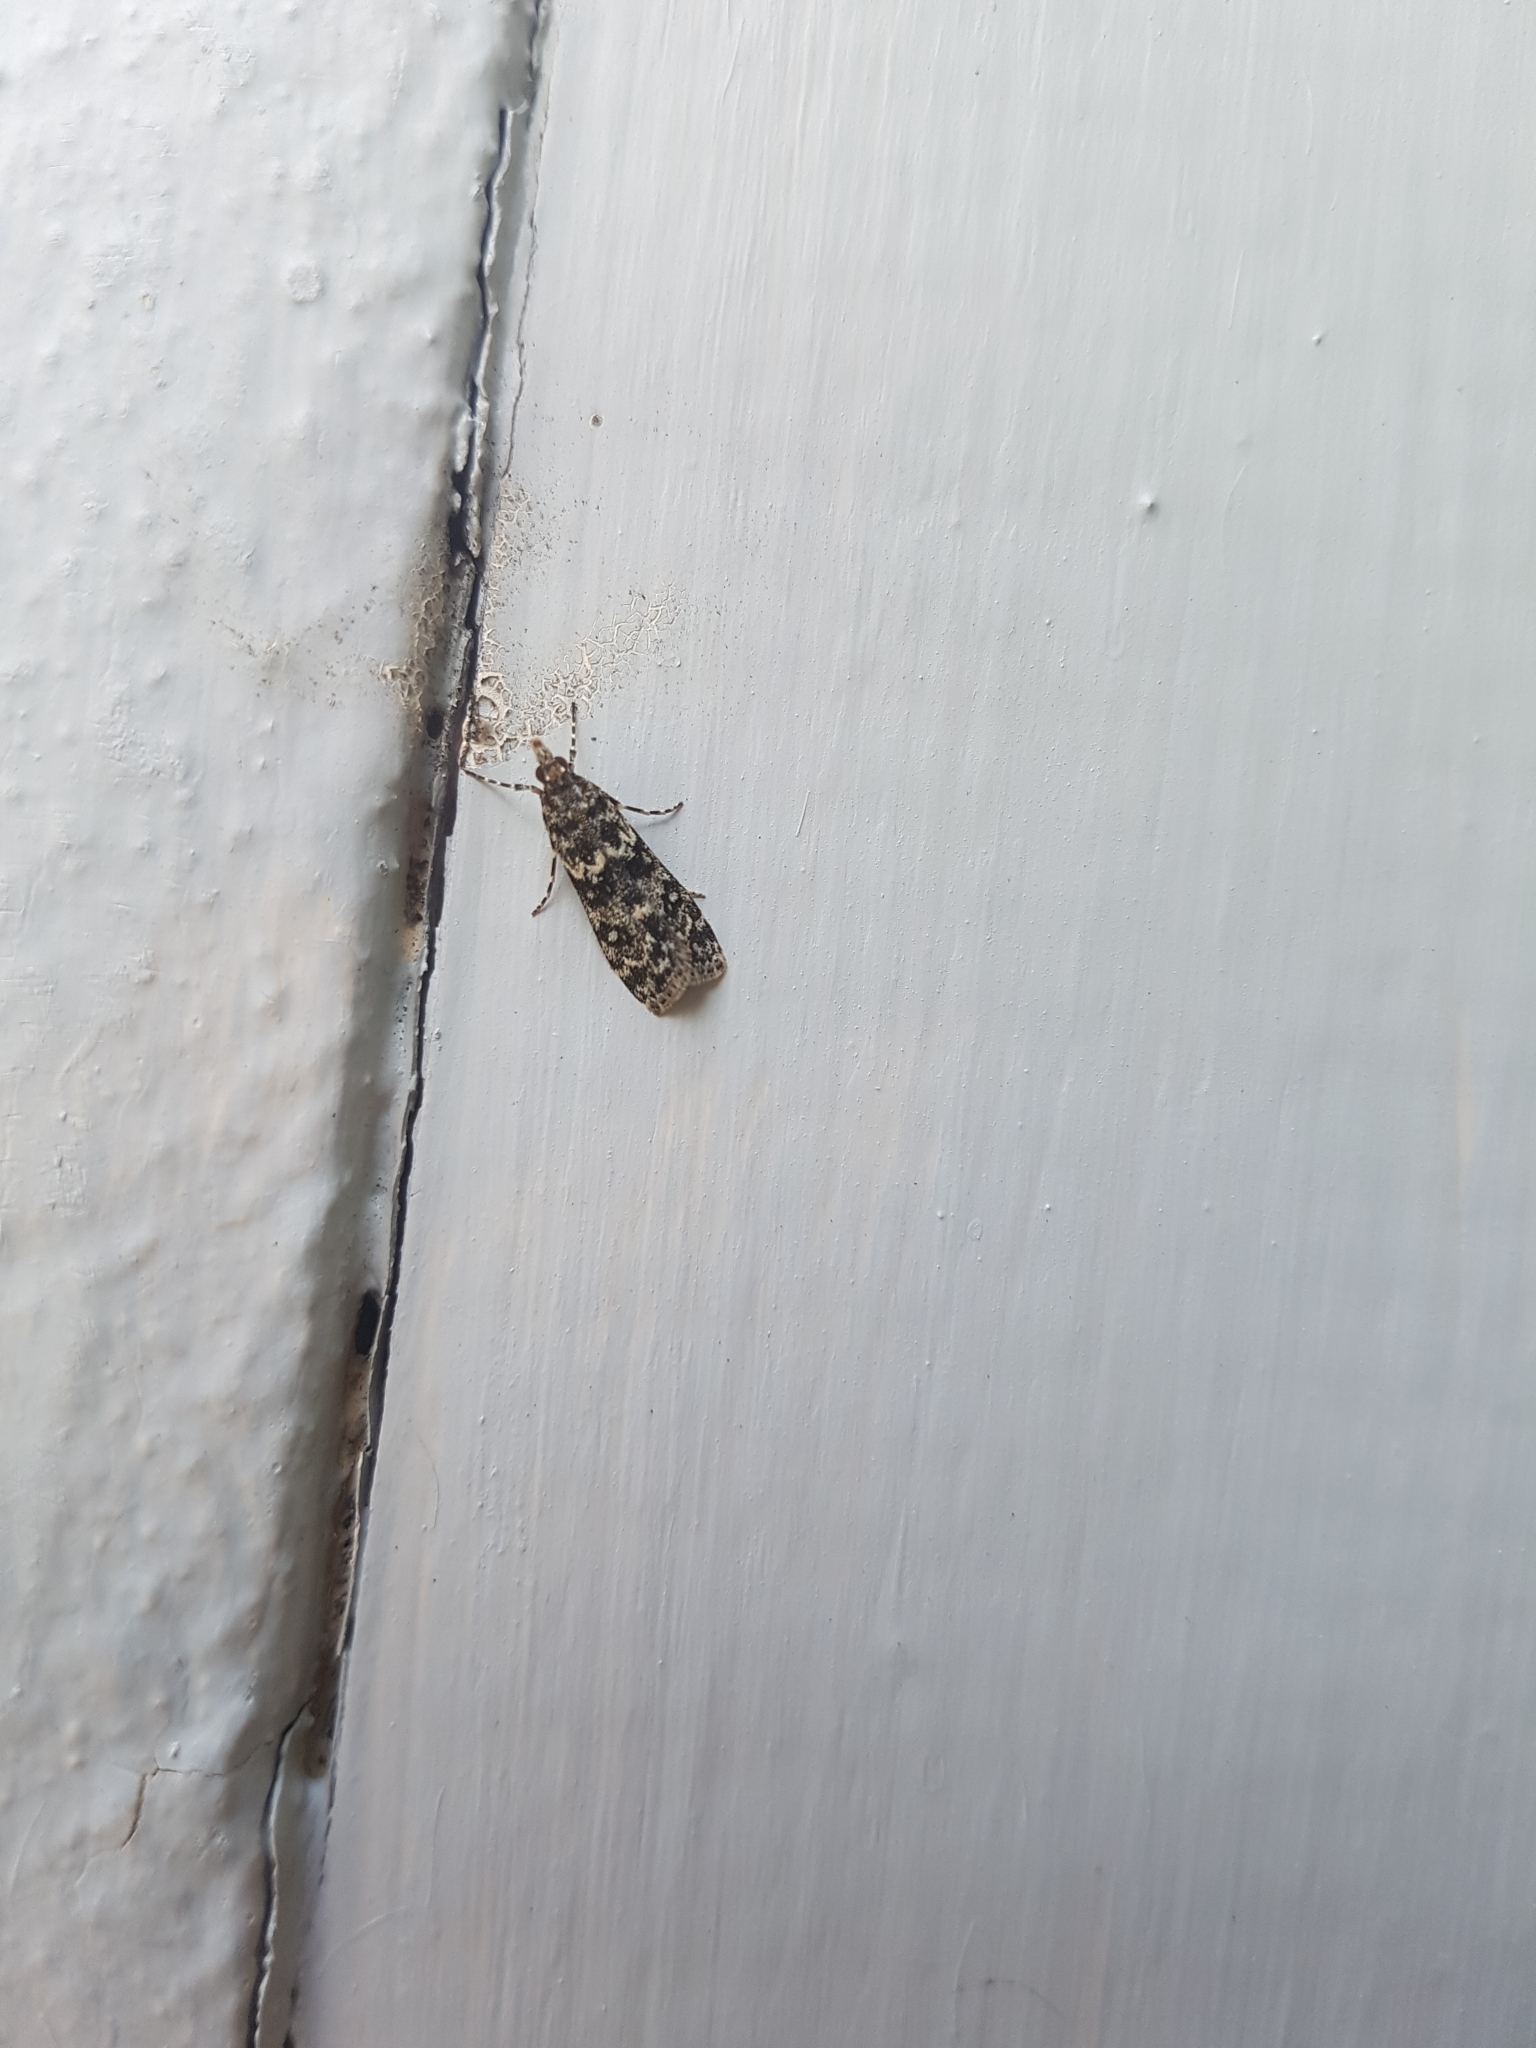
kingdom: Animalia
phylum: Arthropoda
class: Insecta
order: Lepidoptera
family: Crambidae
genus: Eudonia
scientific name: Eudonia philerga
